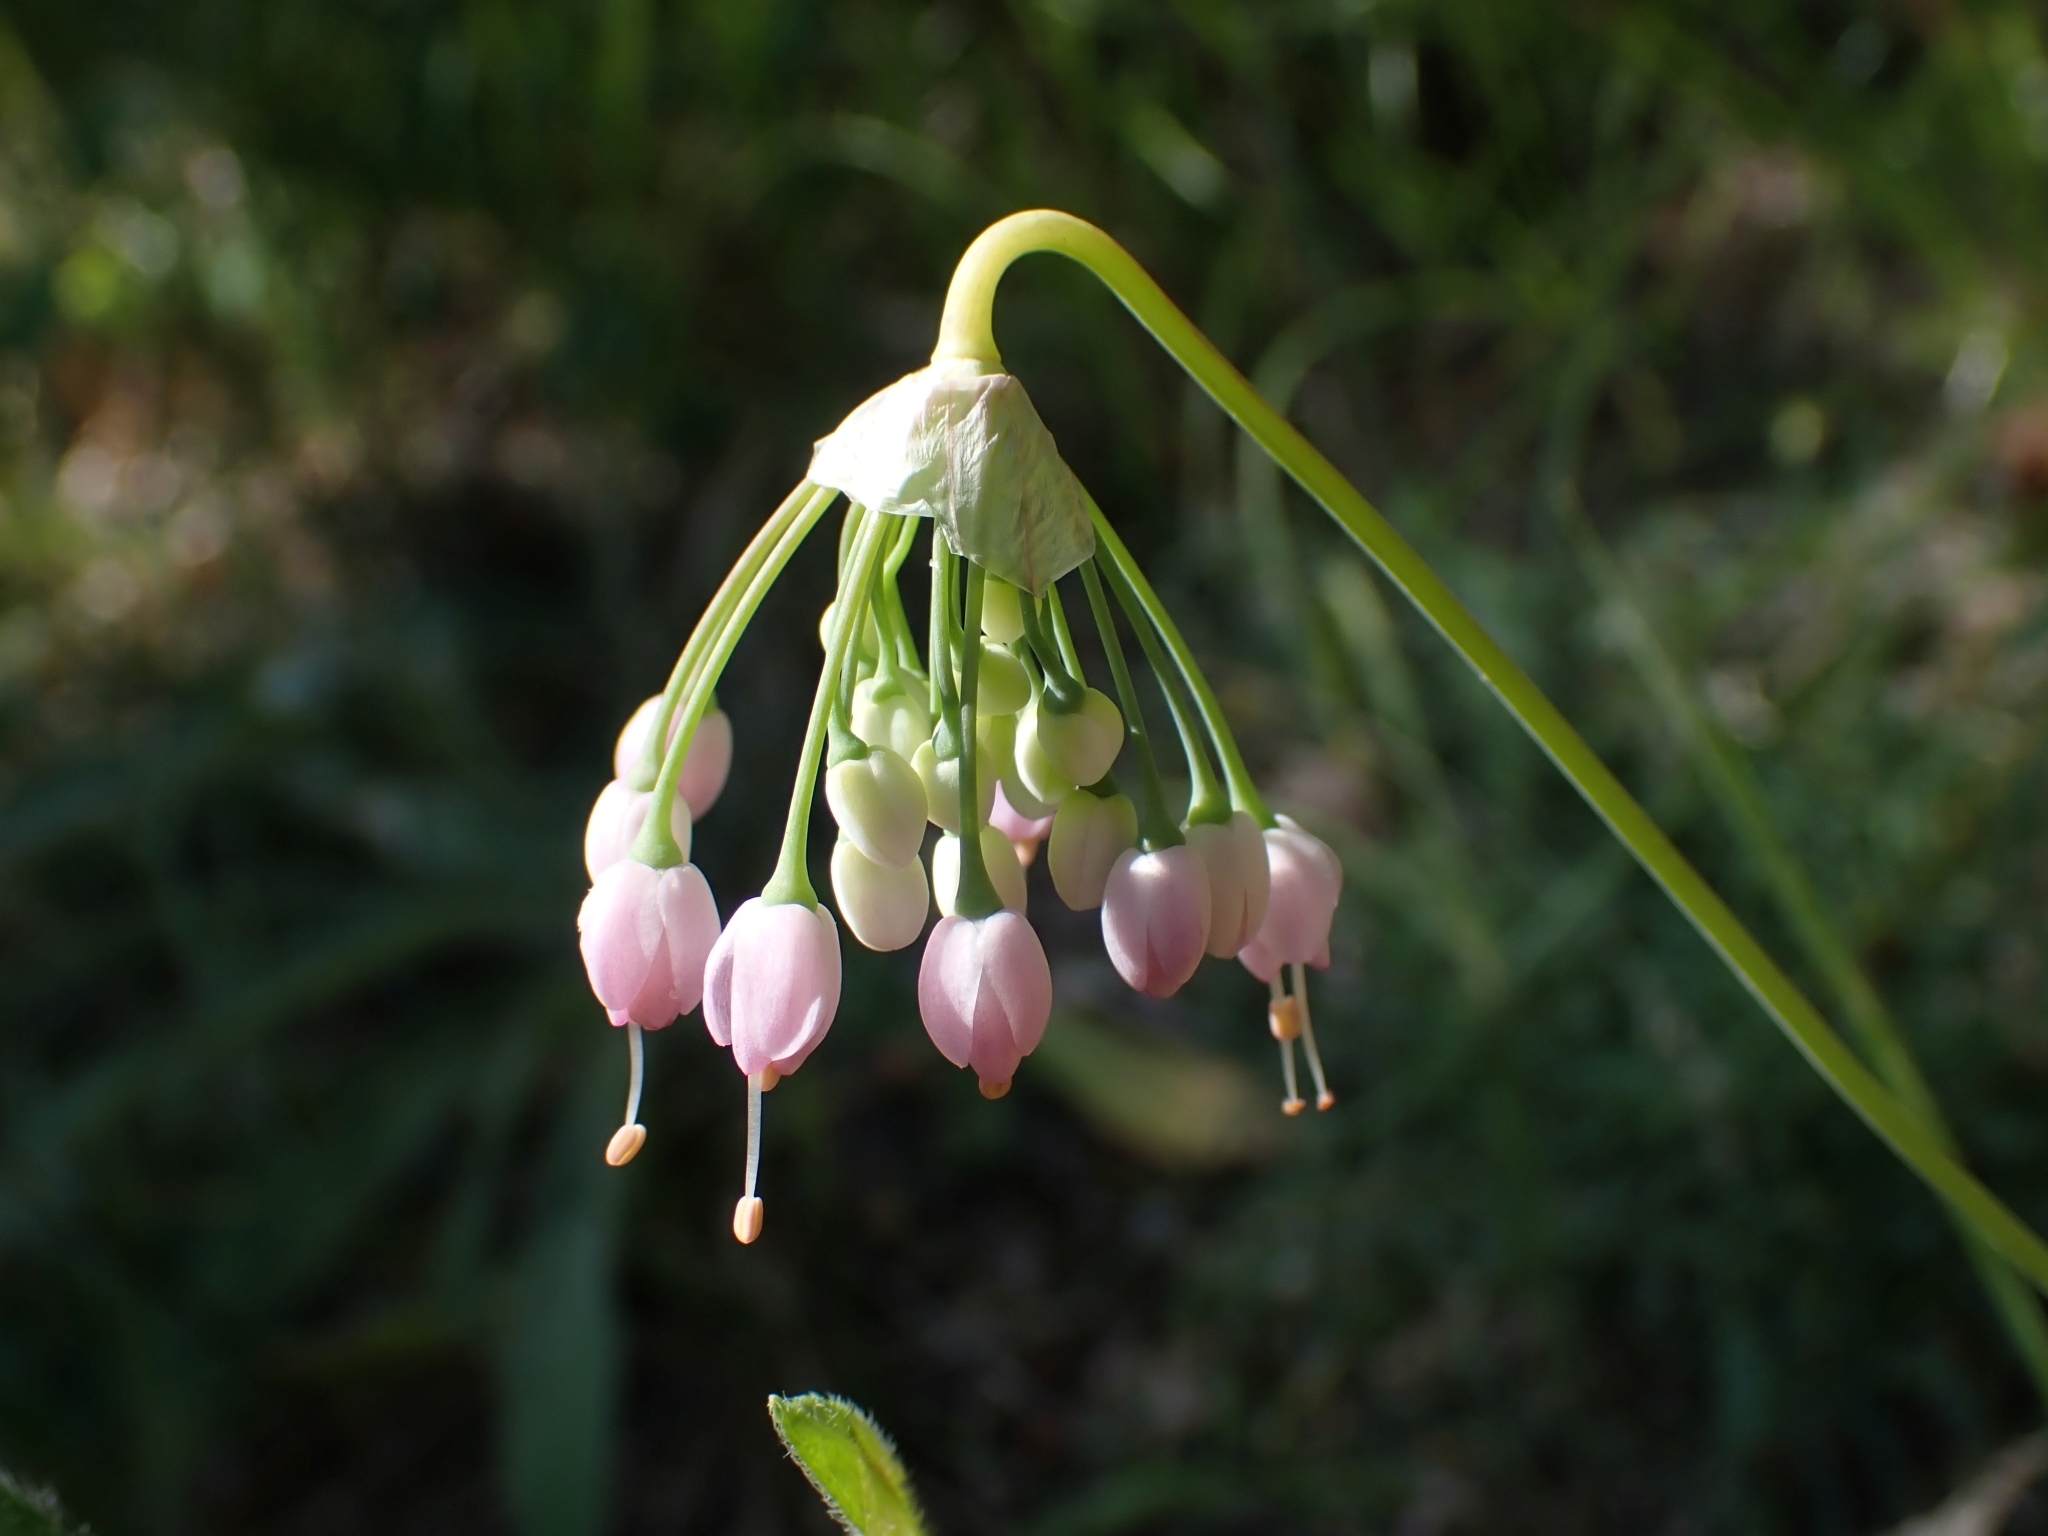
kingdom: Plantae
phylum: Tracheophyta
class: Liliopsida
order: Asparagales
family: Amaryllidaceae
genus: Allium
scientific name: Allium cernuum
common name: Nodding onion
